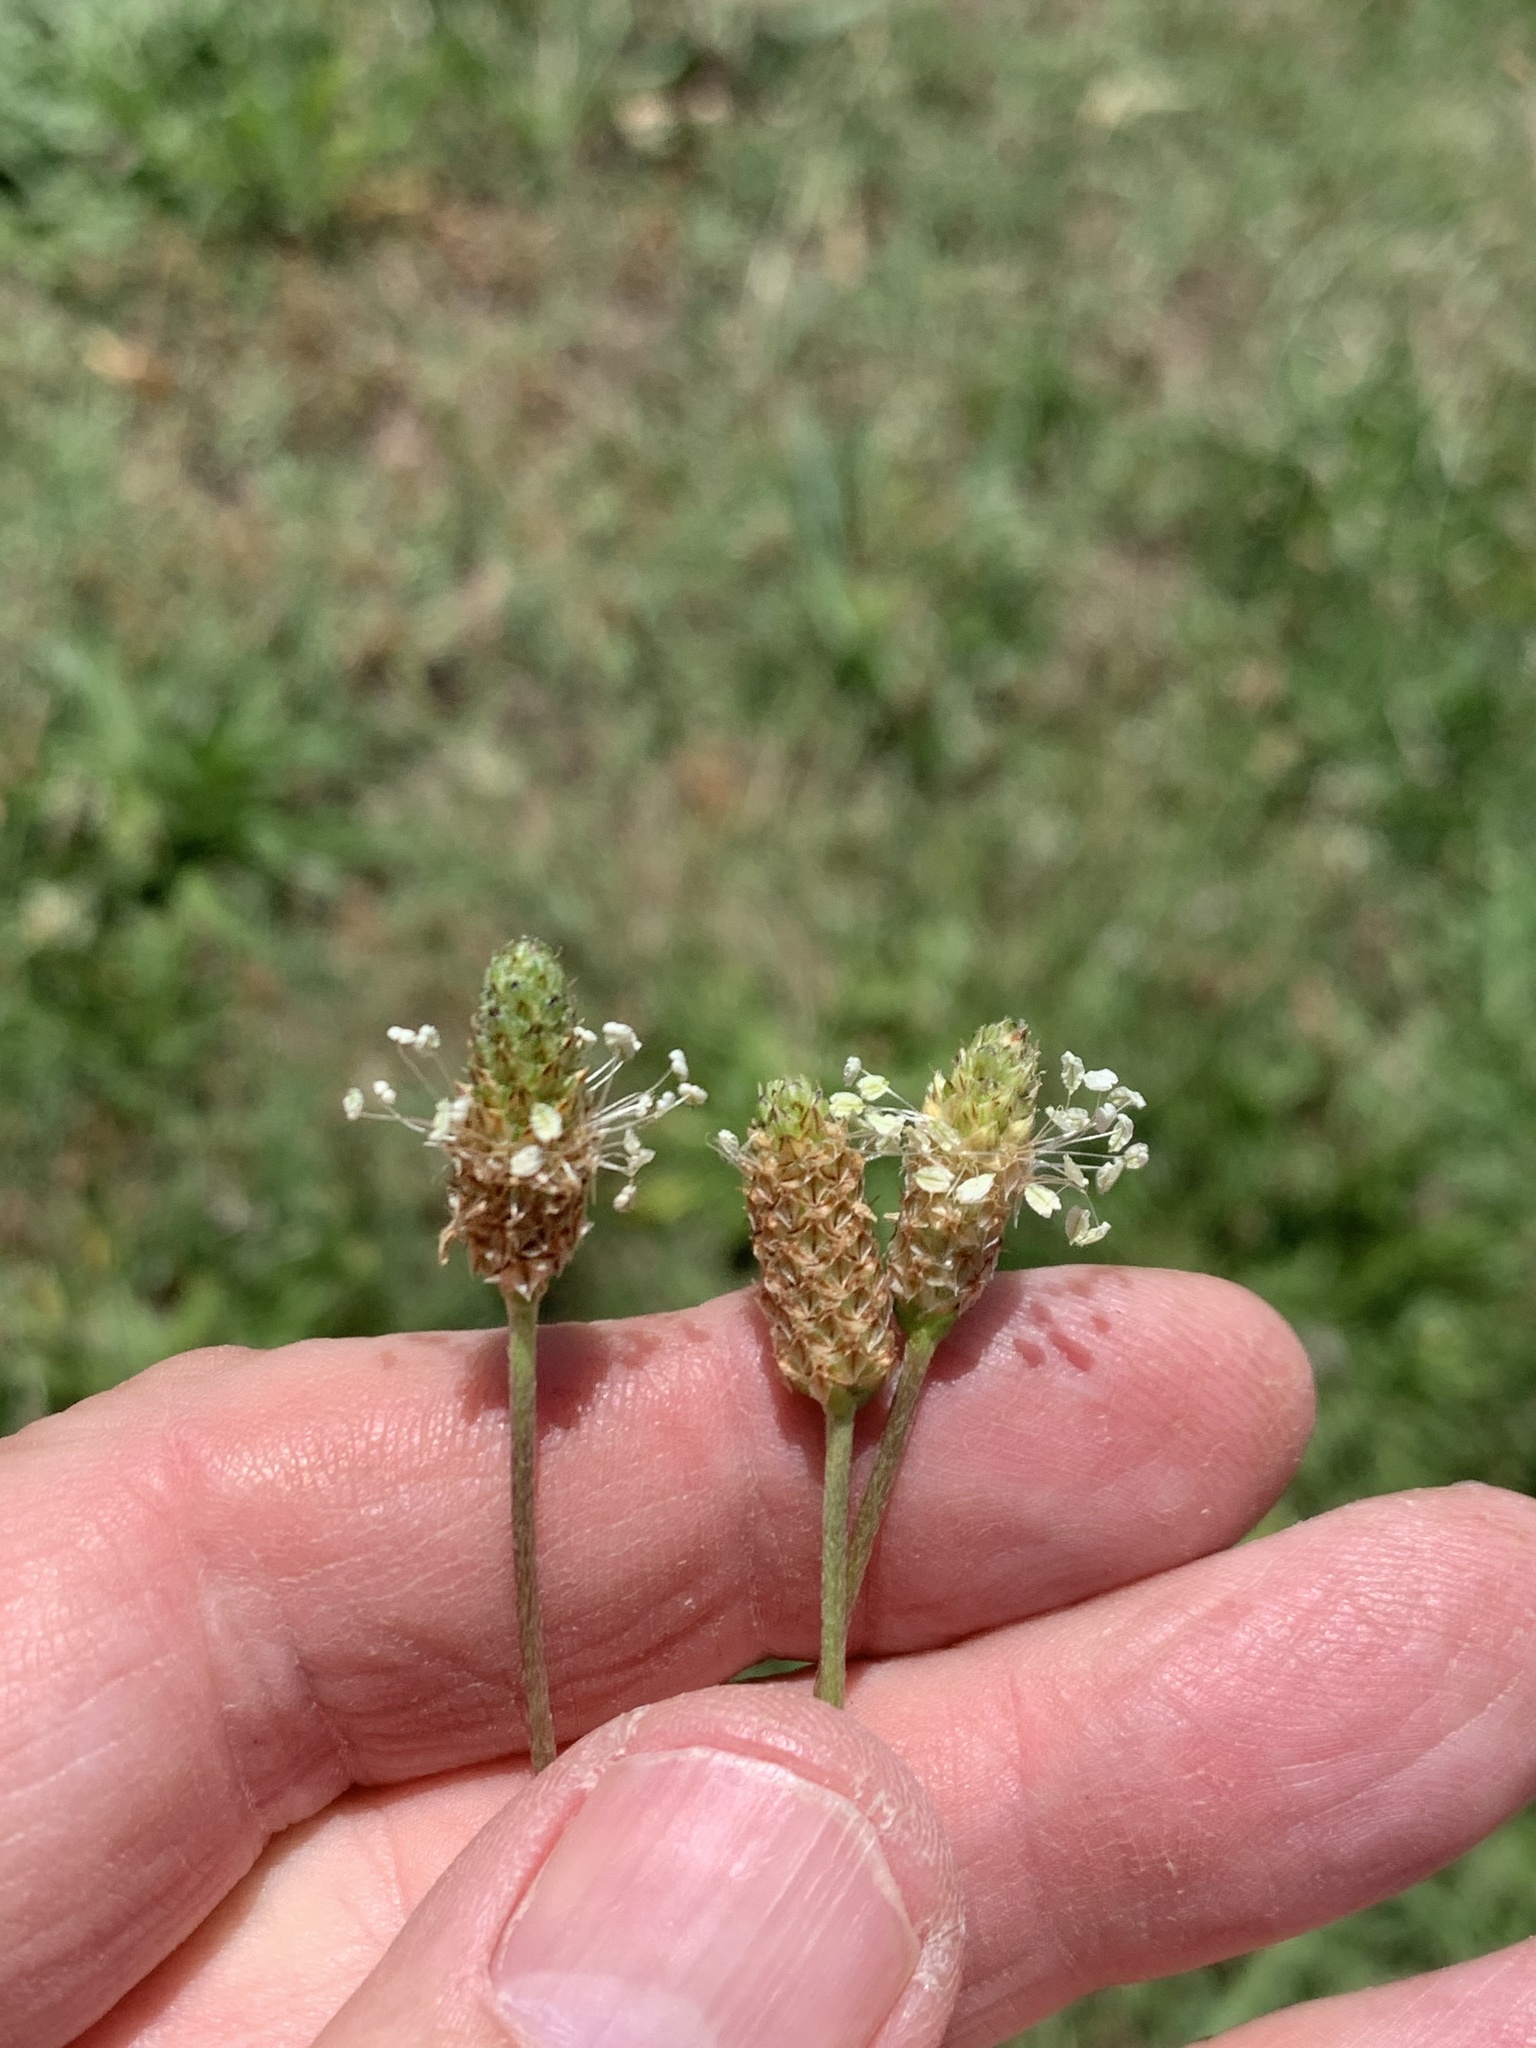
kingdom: Plantae
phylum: Tracheophyta
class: Magnoliopsida
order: Lamiales
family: Plantaginaceae
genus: Plantago
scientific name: Plantago lanceolata
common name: Ribwort plantain
